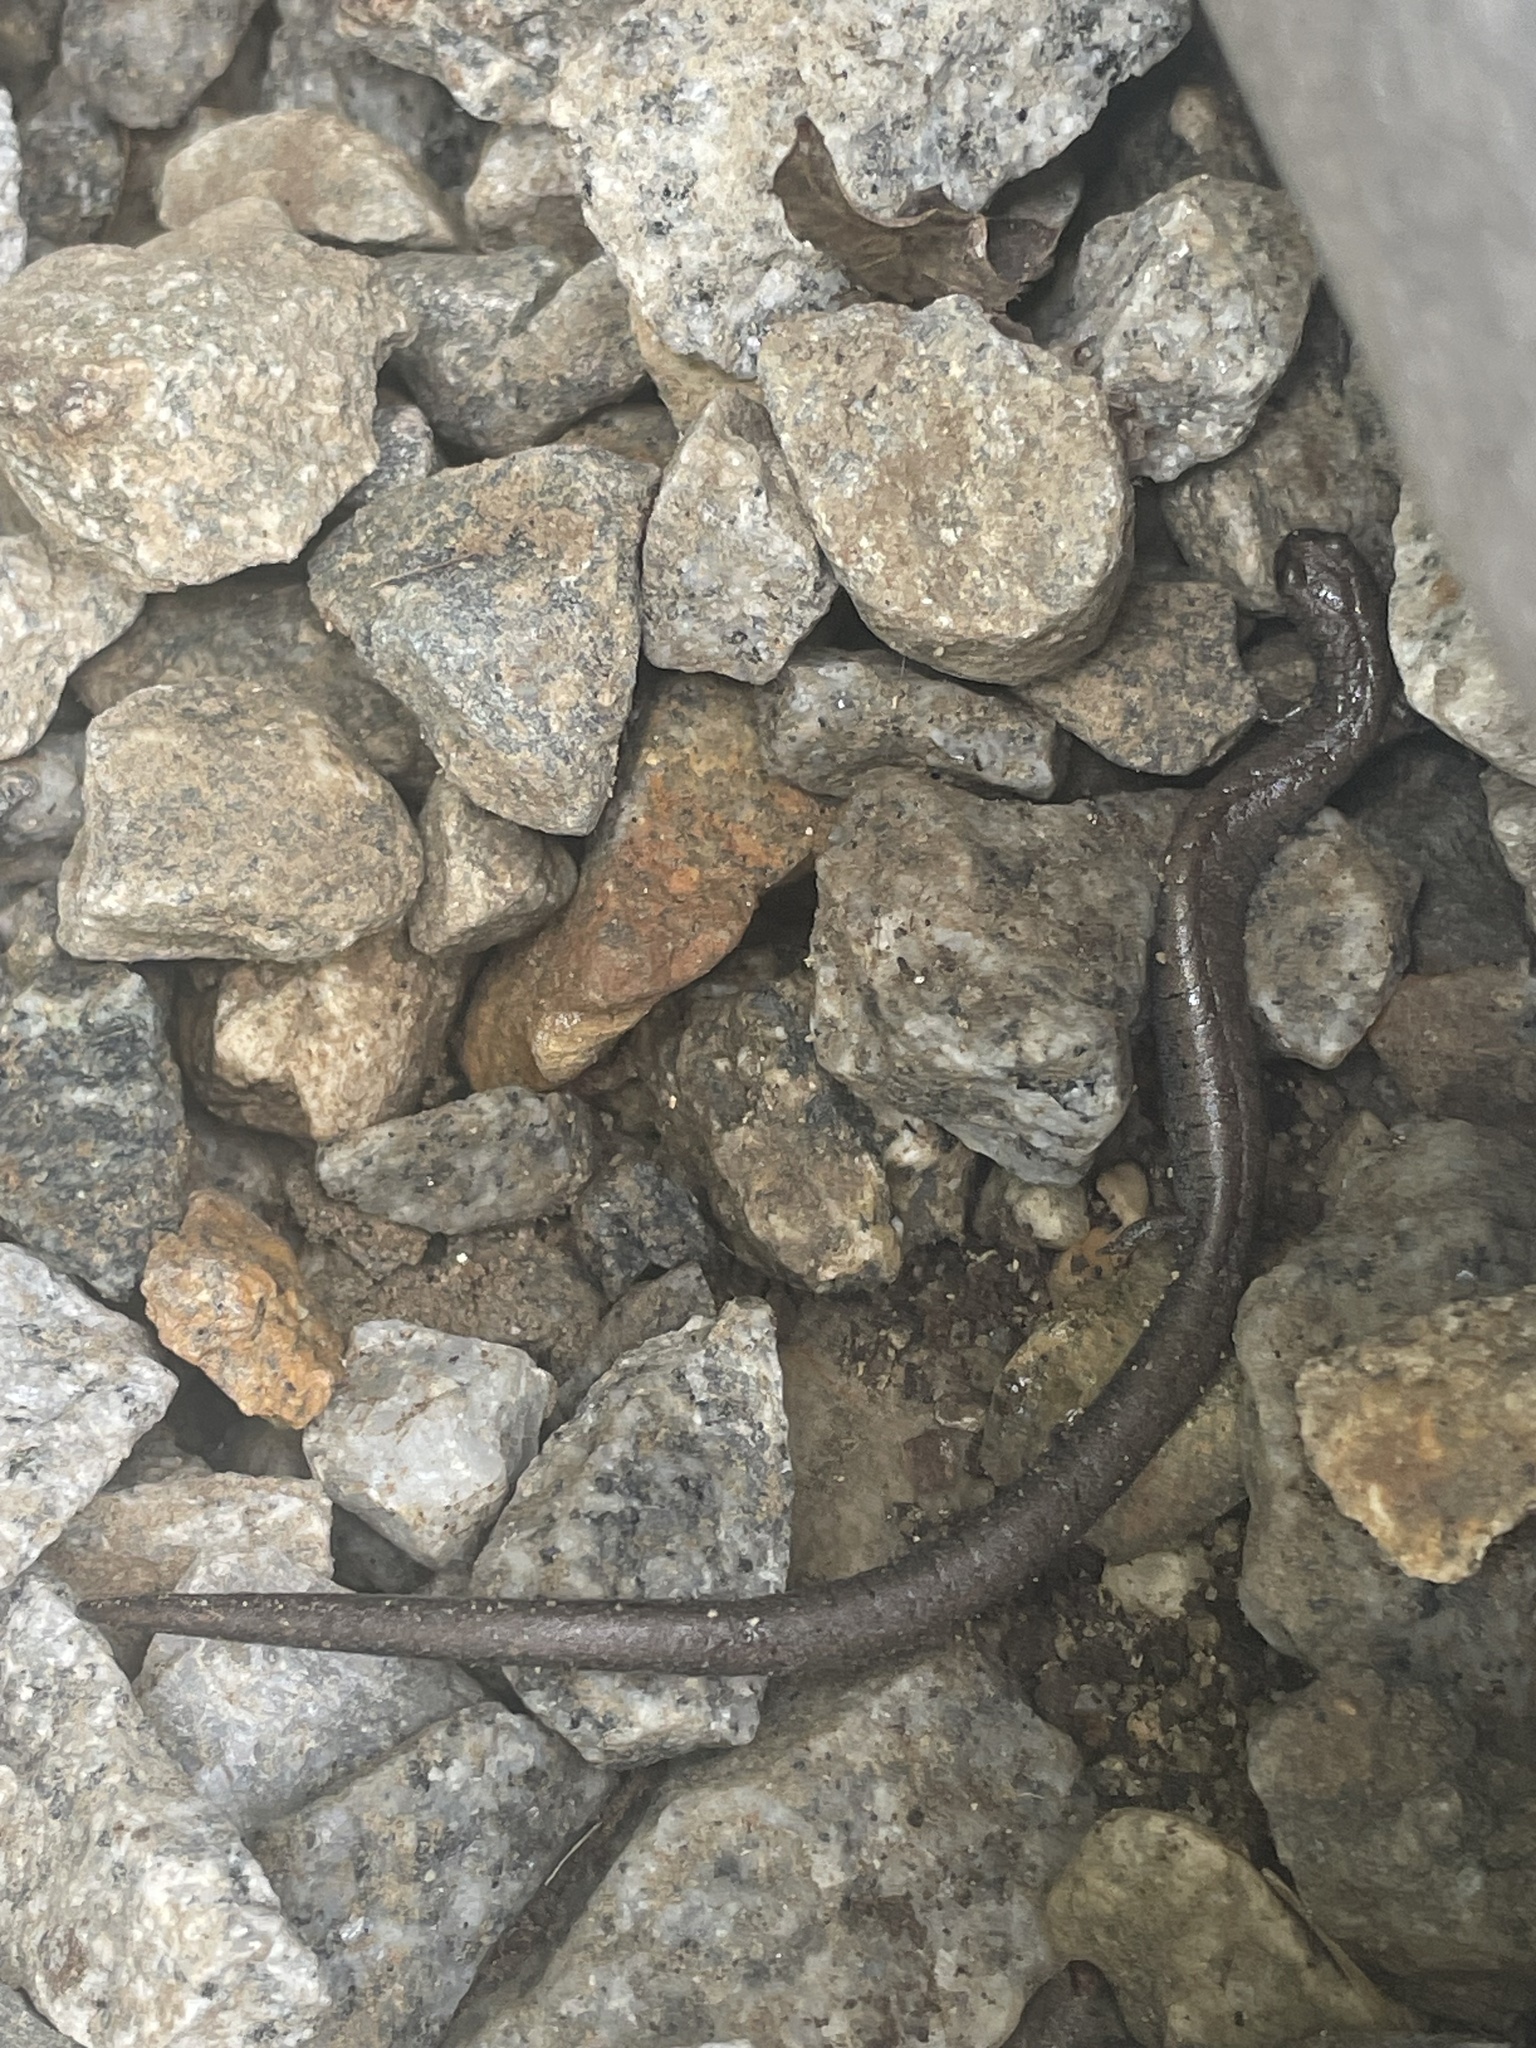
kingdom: Animalia
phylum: Chordata
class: Amphibia
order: Caudata
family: Plethodontidae
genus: Batrachoseps
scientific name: Batrachoseps nigriventris
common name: Black-bellied slender salamander
